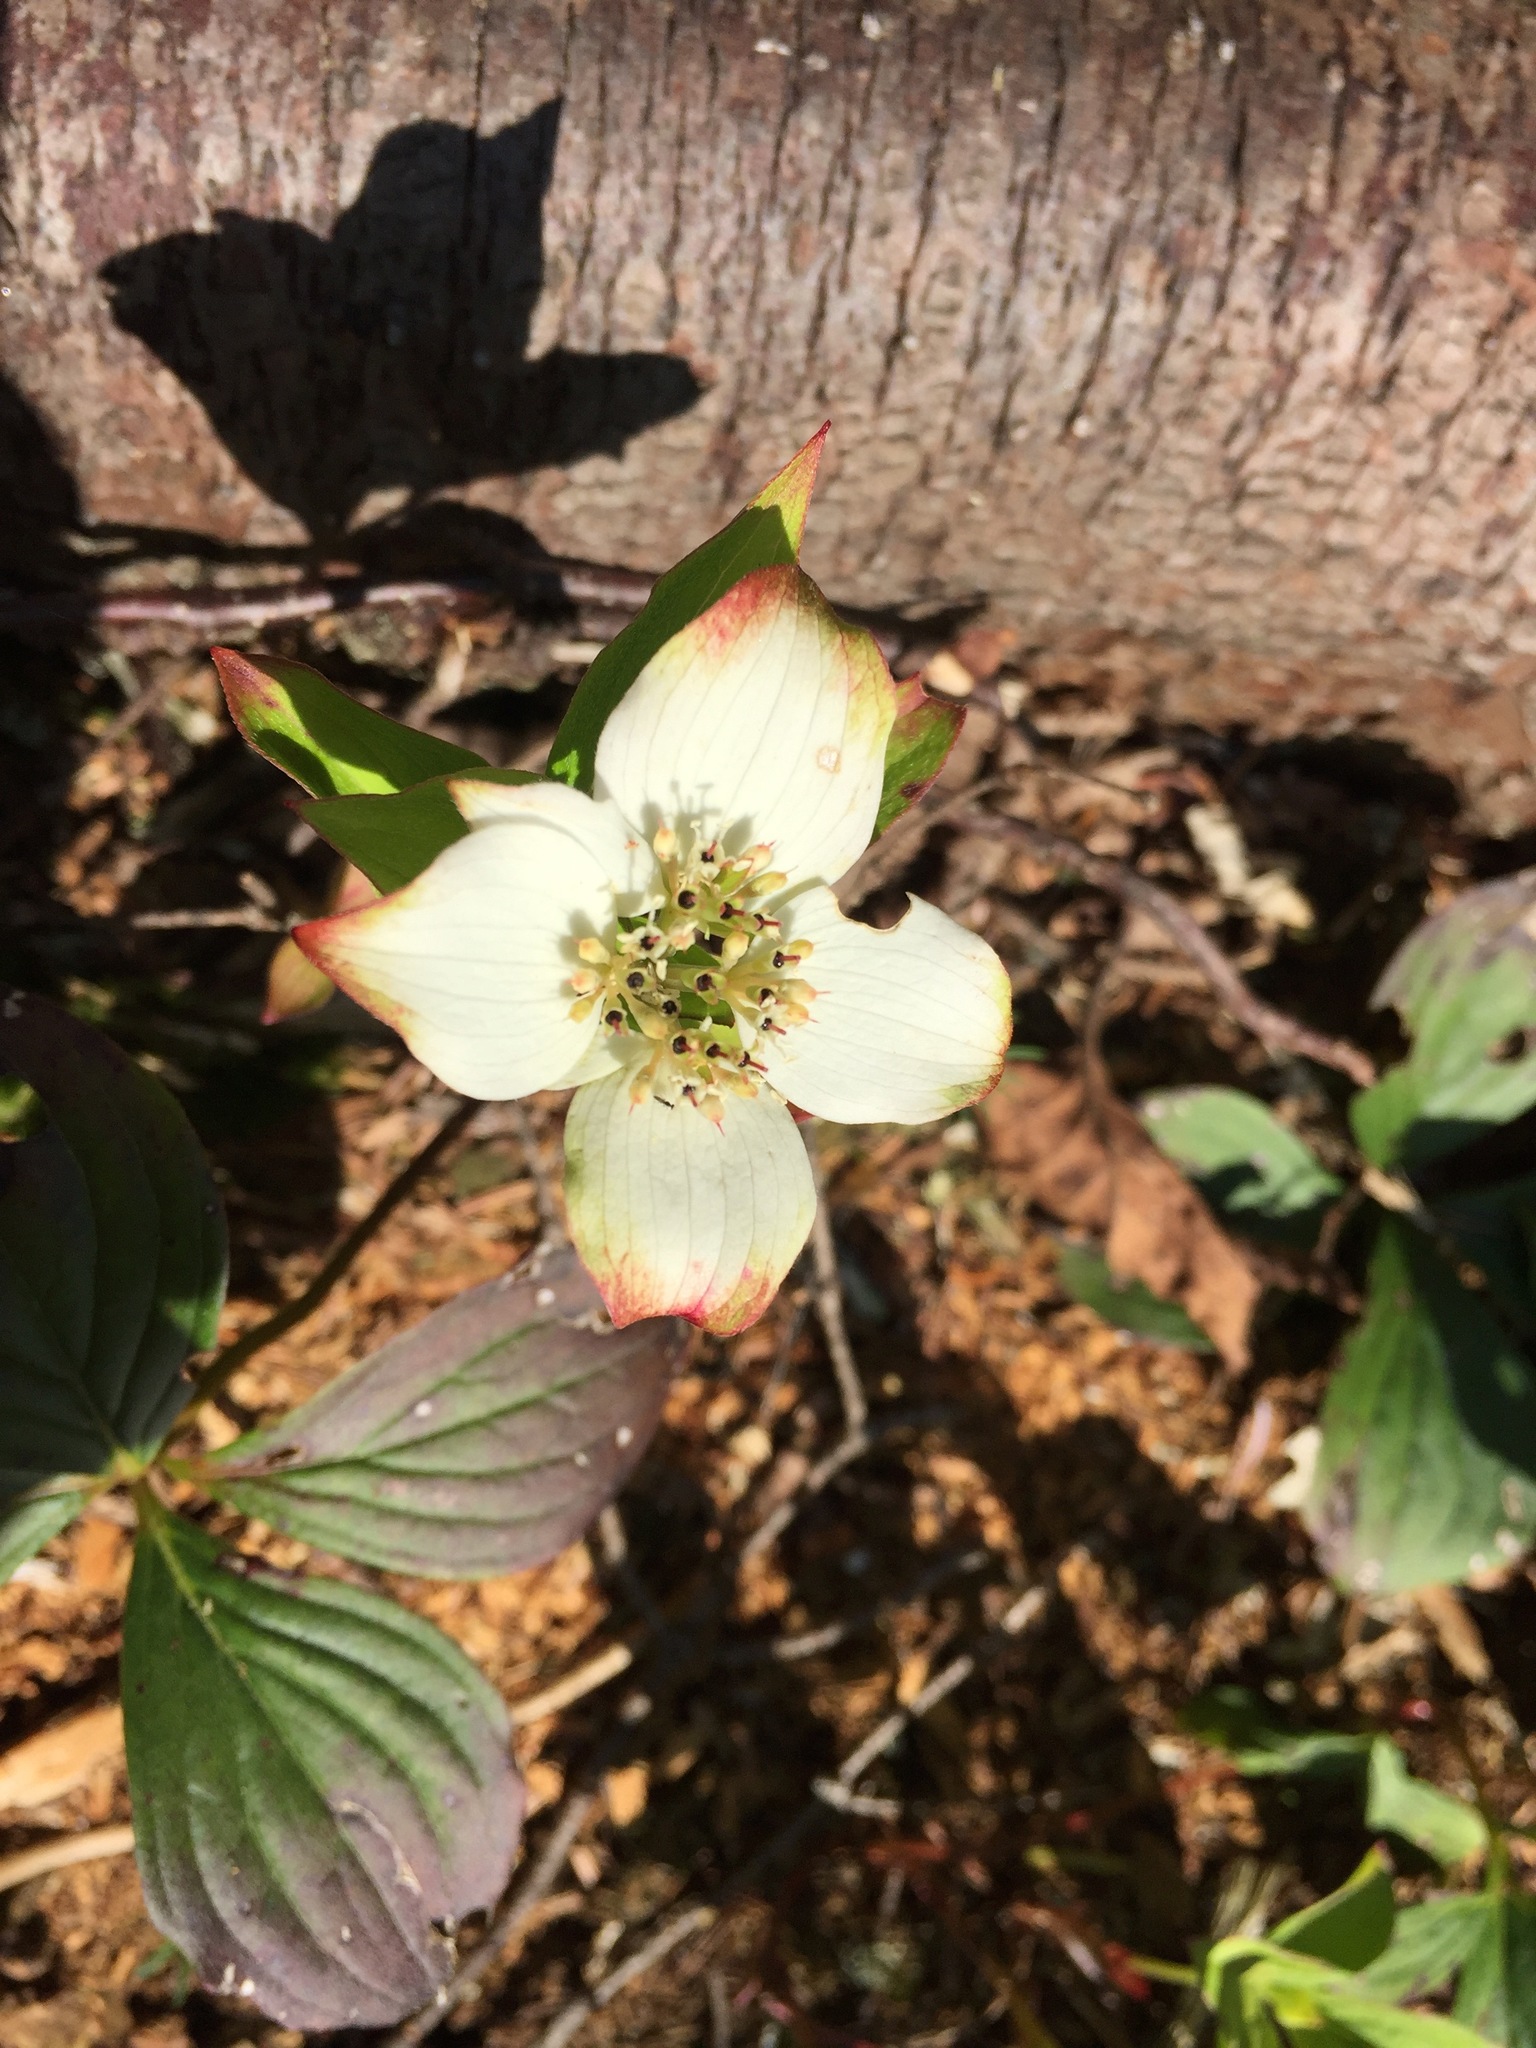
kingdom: Plantae
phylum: Tracheophyta
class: Magnoliopsida
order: Cornales
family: Cornaceae
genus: Cornus
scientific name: Cornus canadensis
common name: Creeping dogwood
